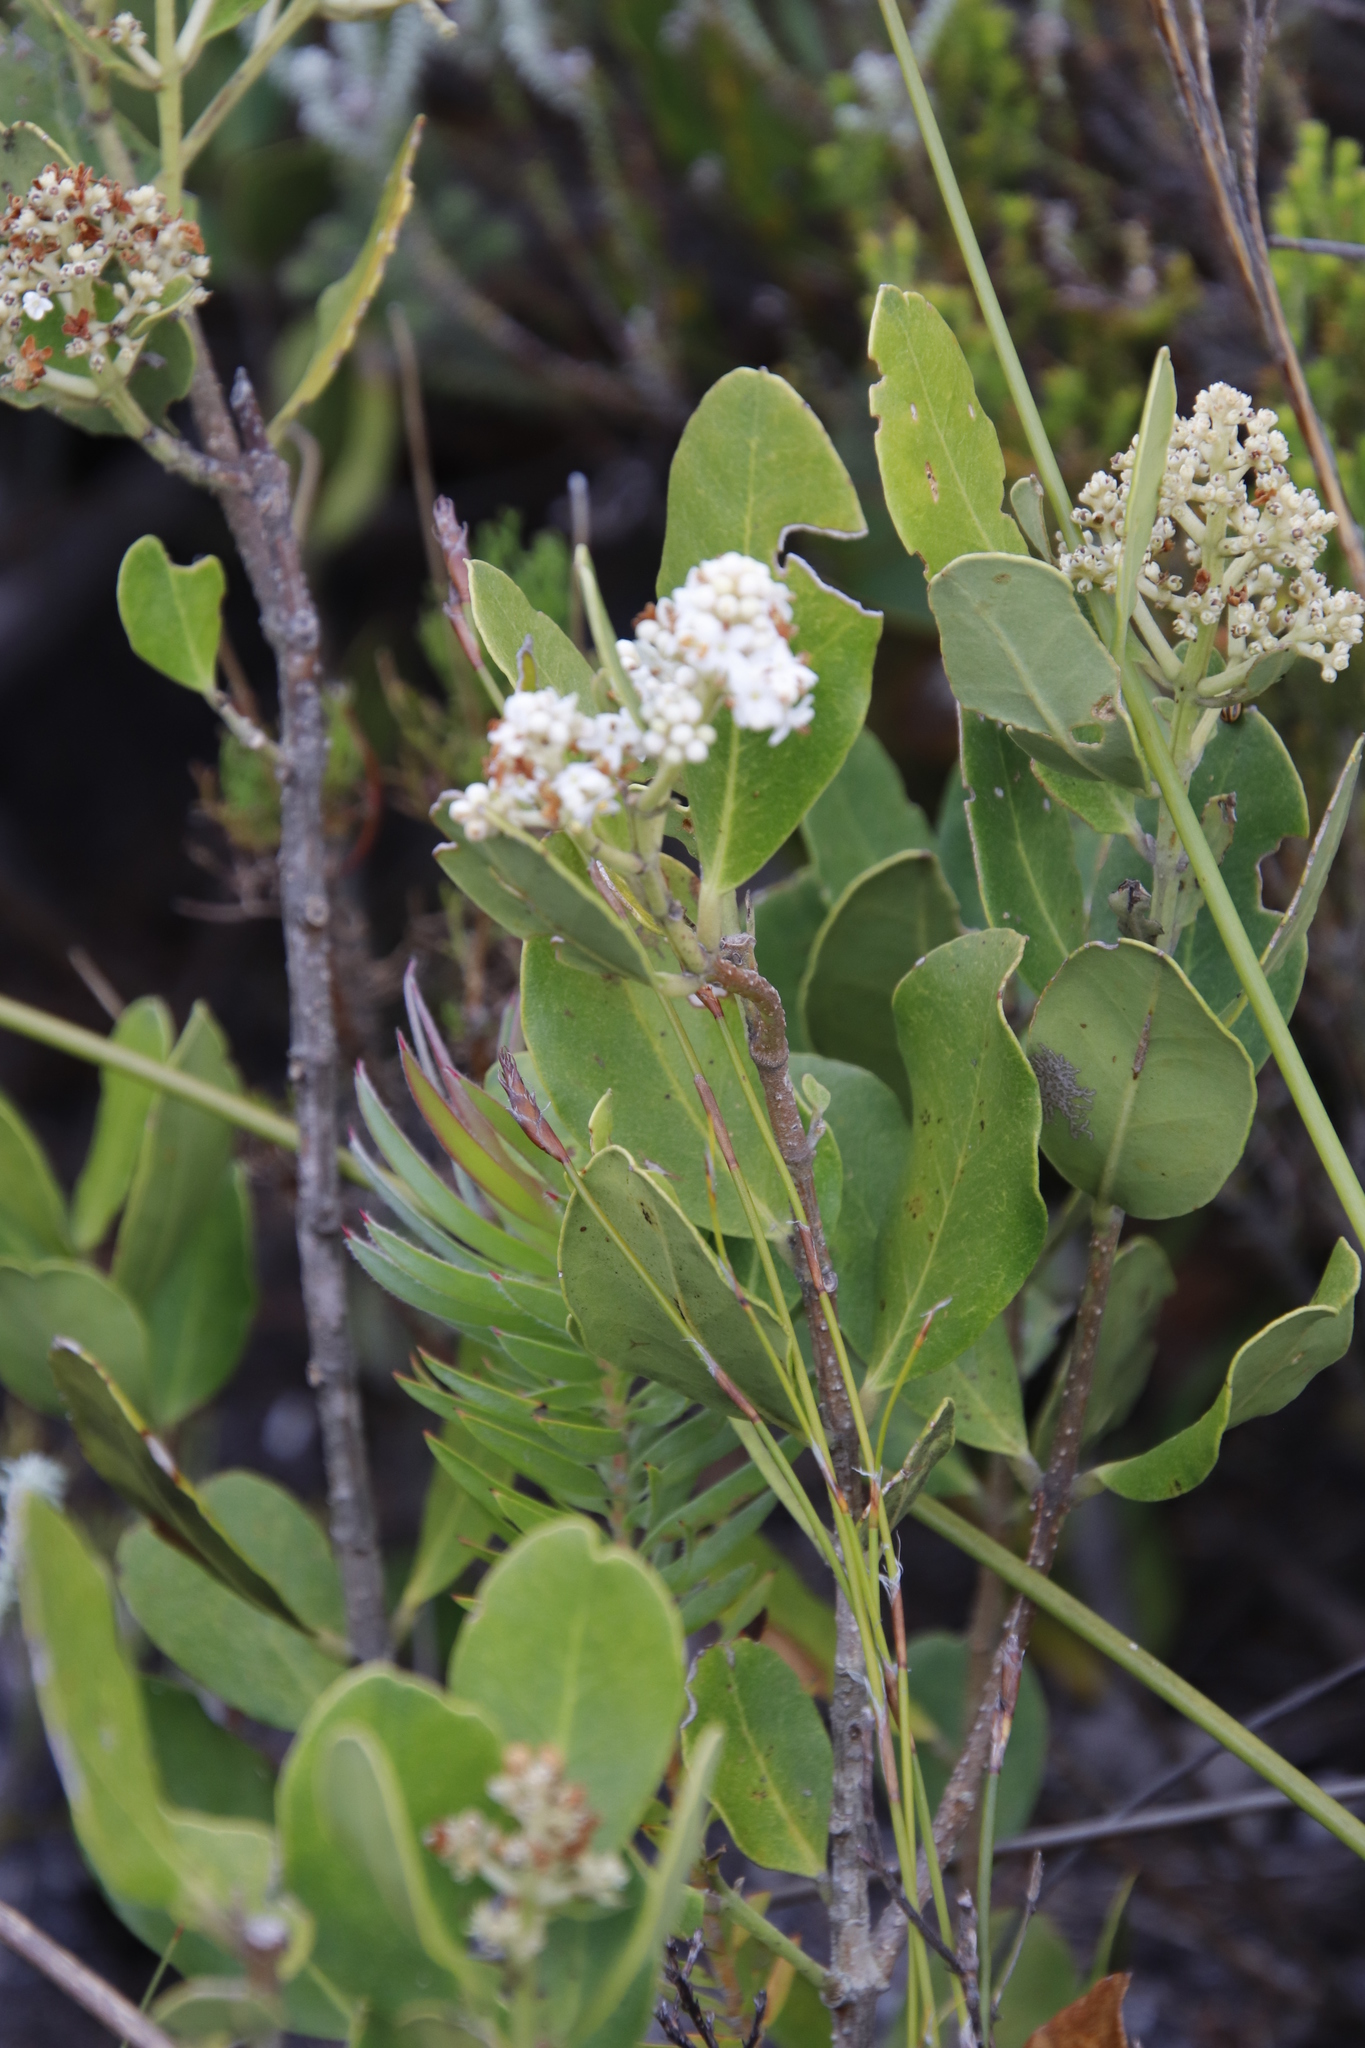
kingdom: Plantae
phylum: Tracheophyta
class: Magnoliopsida
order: Lamiales
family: Oleaceae
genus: Olea
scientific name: Olea capensis
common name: Black ironwood
